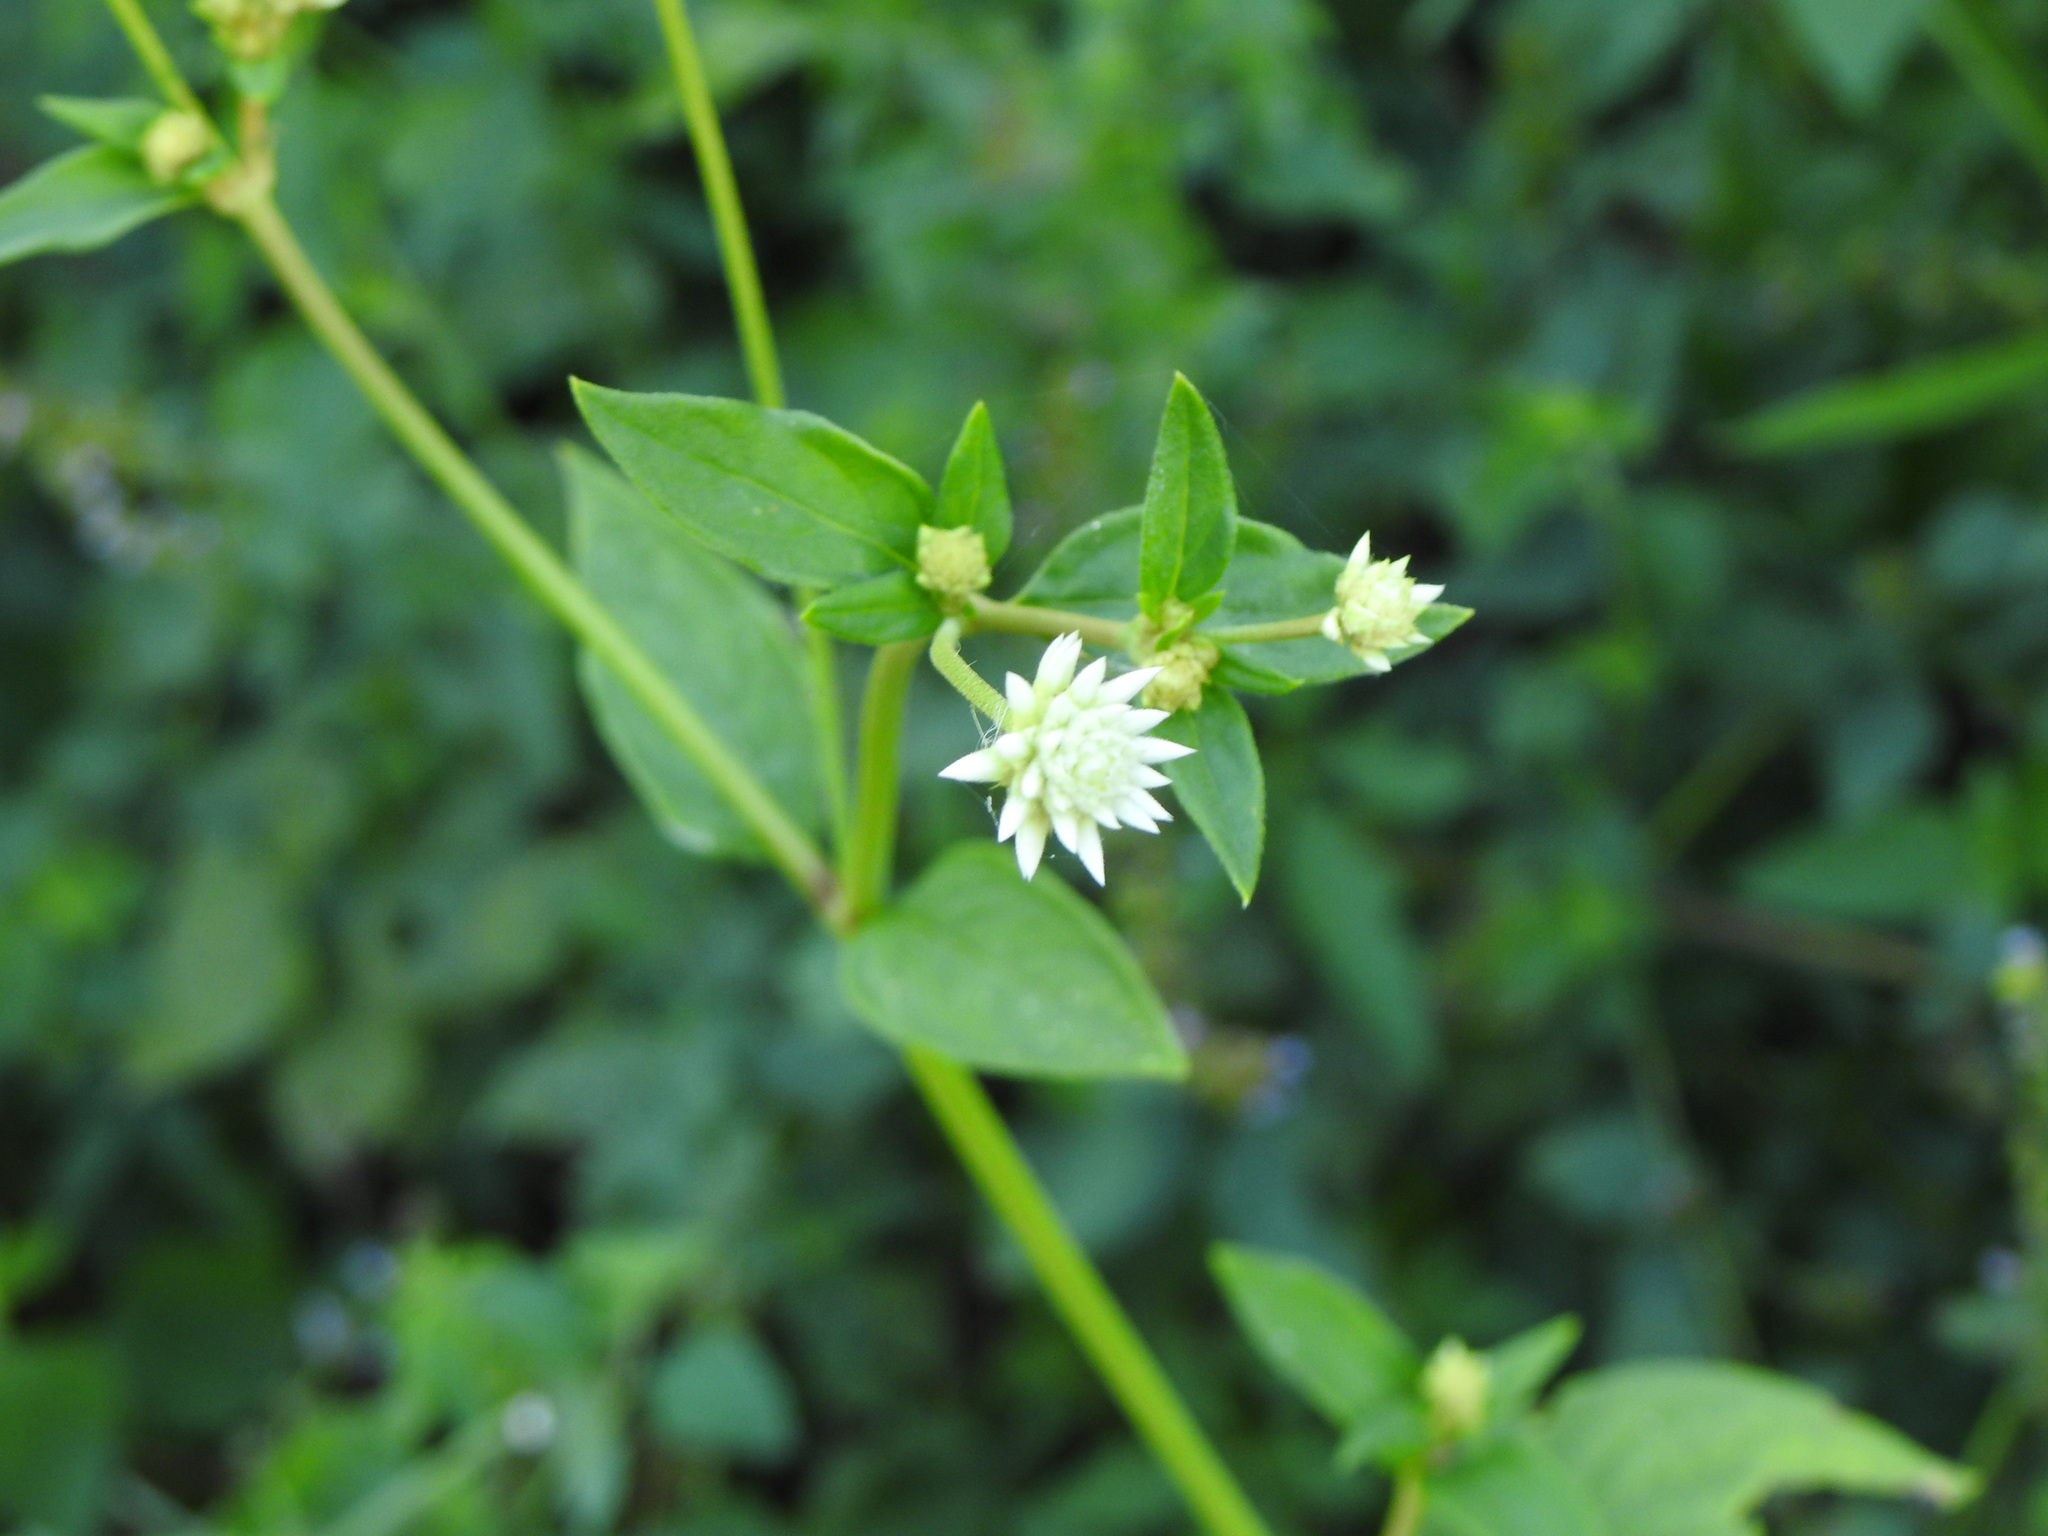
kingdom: Plantae
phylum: Tracheophyta
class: Magnoliopsida
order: Caryophyllales
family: Amaranthaceae
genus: Gomphrena
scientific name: Gomphrena elegans
